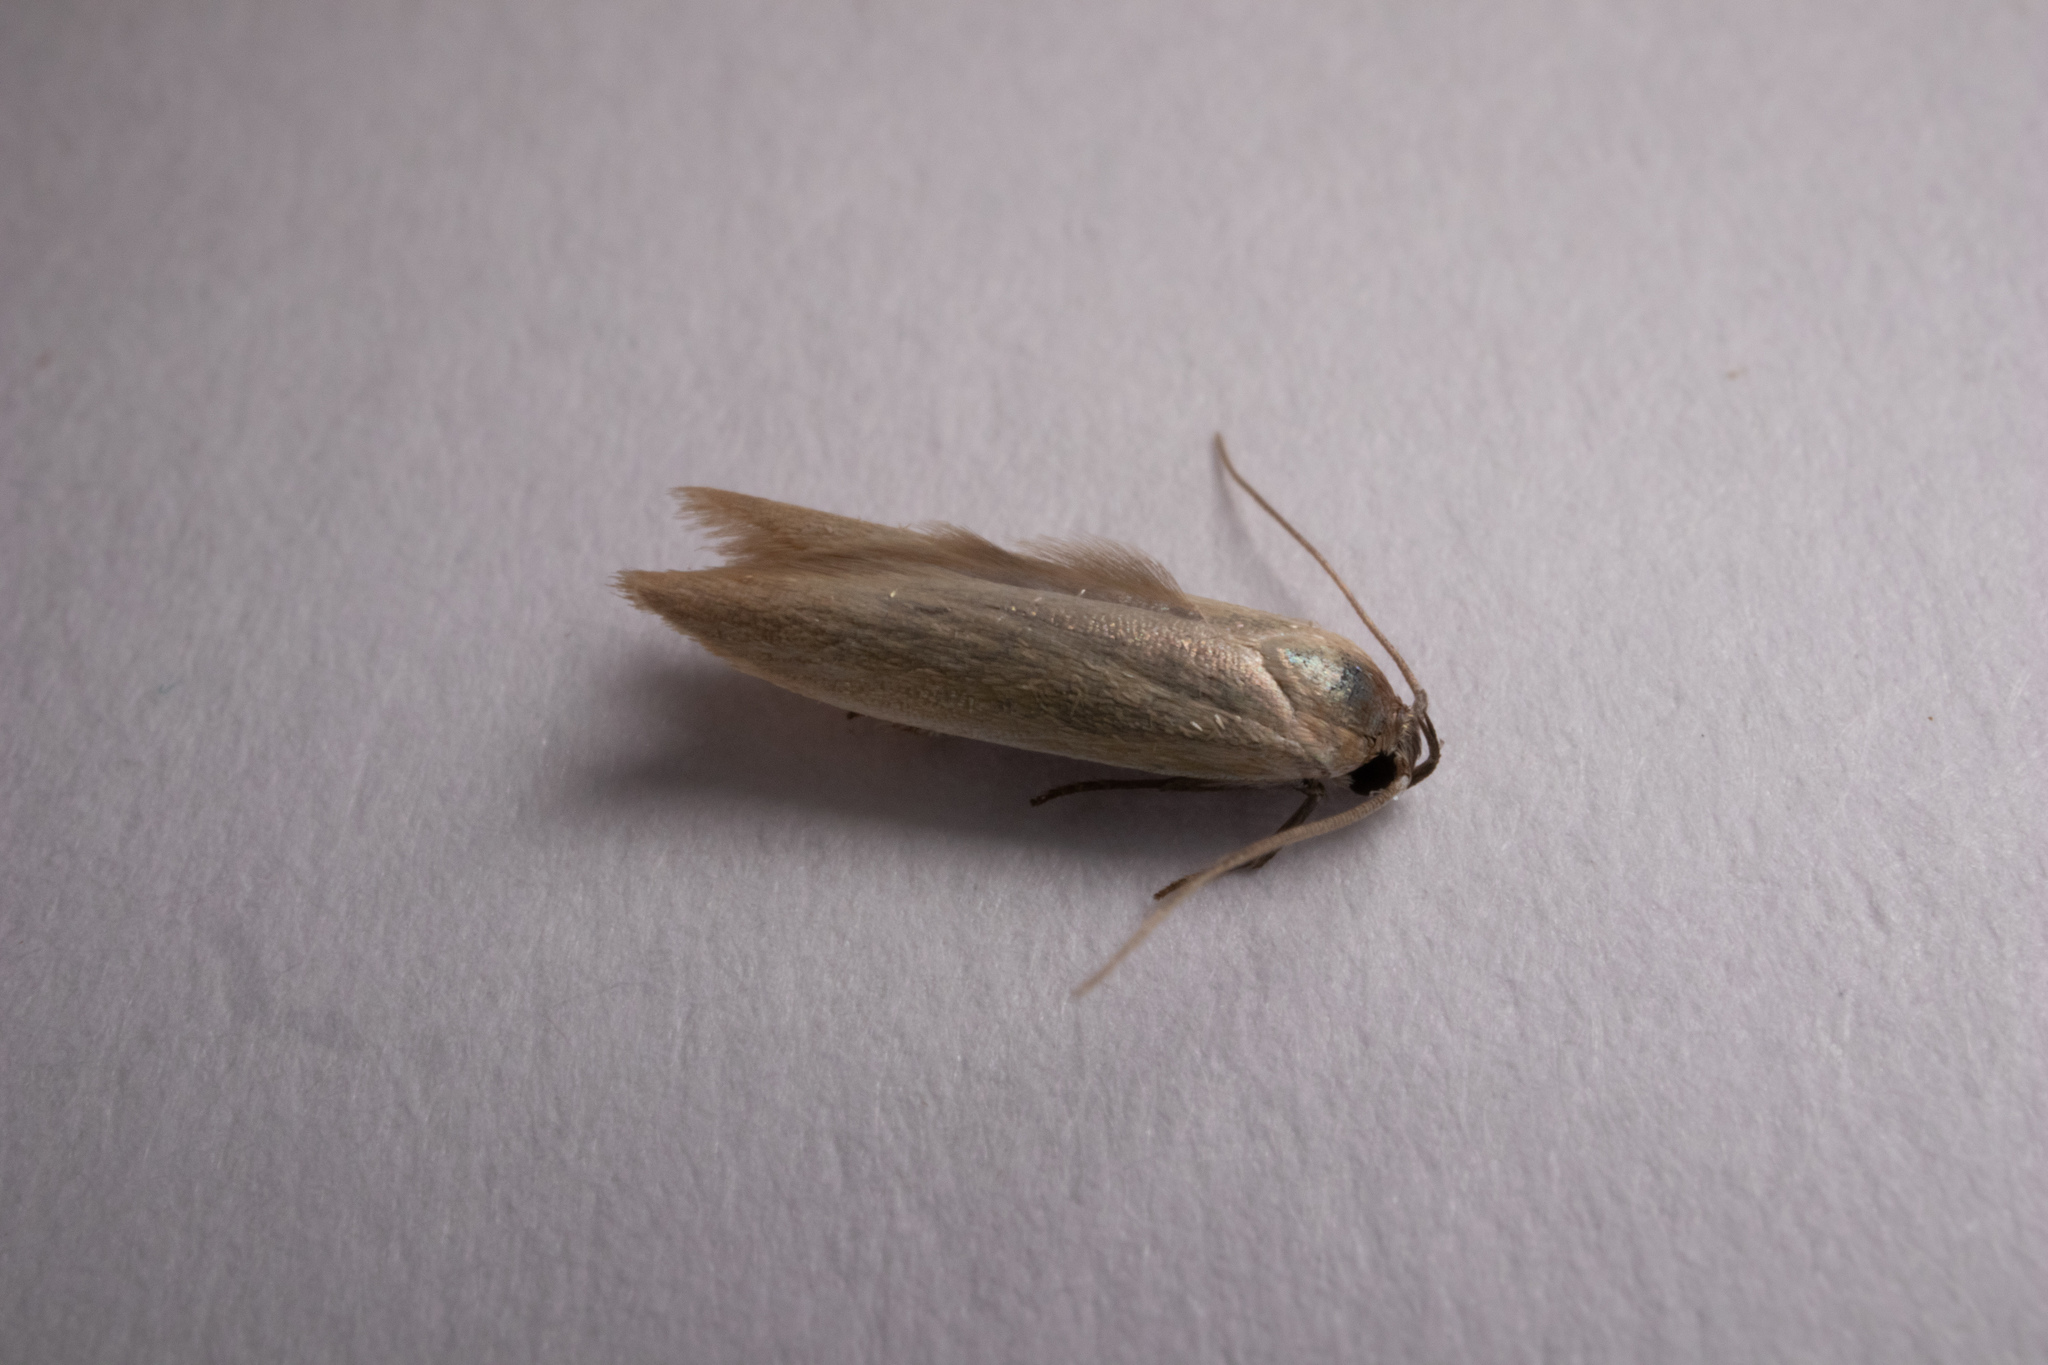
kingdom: Animalia
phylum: Arthropoda
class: Insecta
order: Lepidoptera
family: Blastobasidae
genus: Holcocerina
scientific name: Holcocerina immaculella
